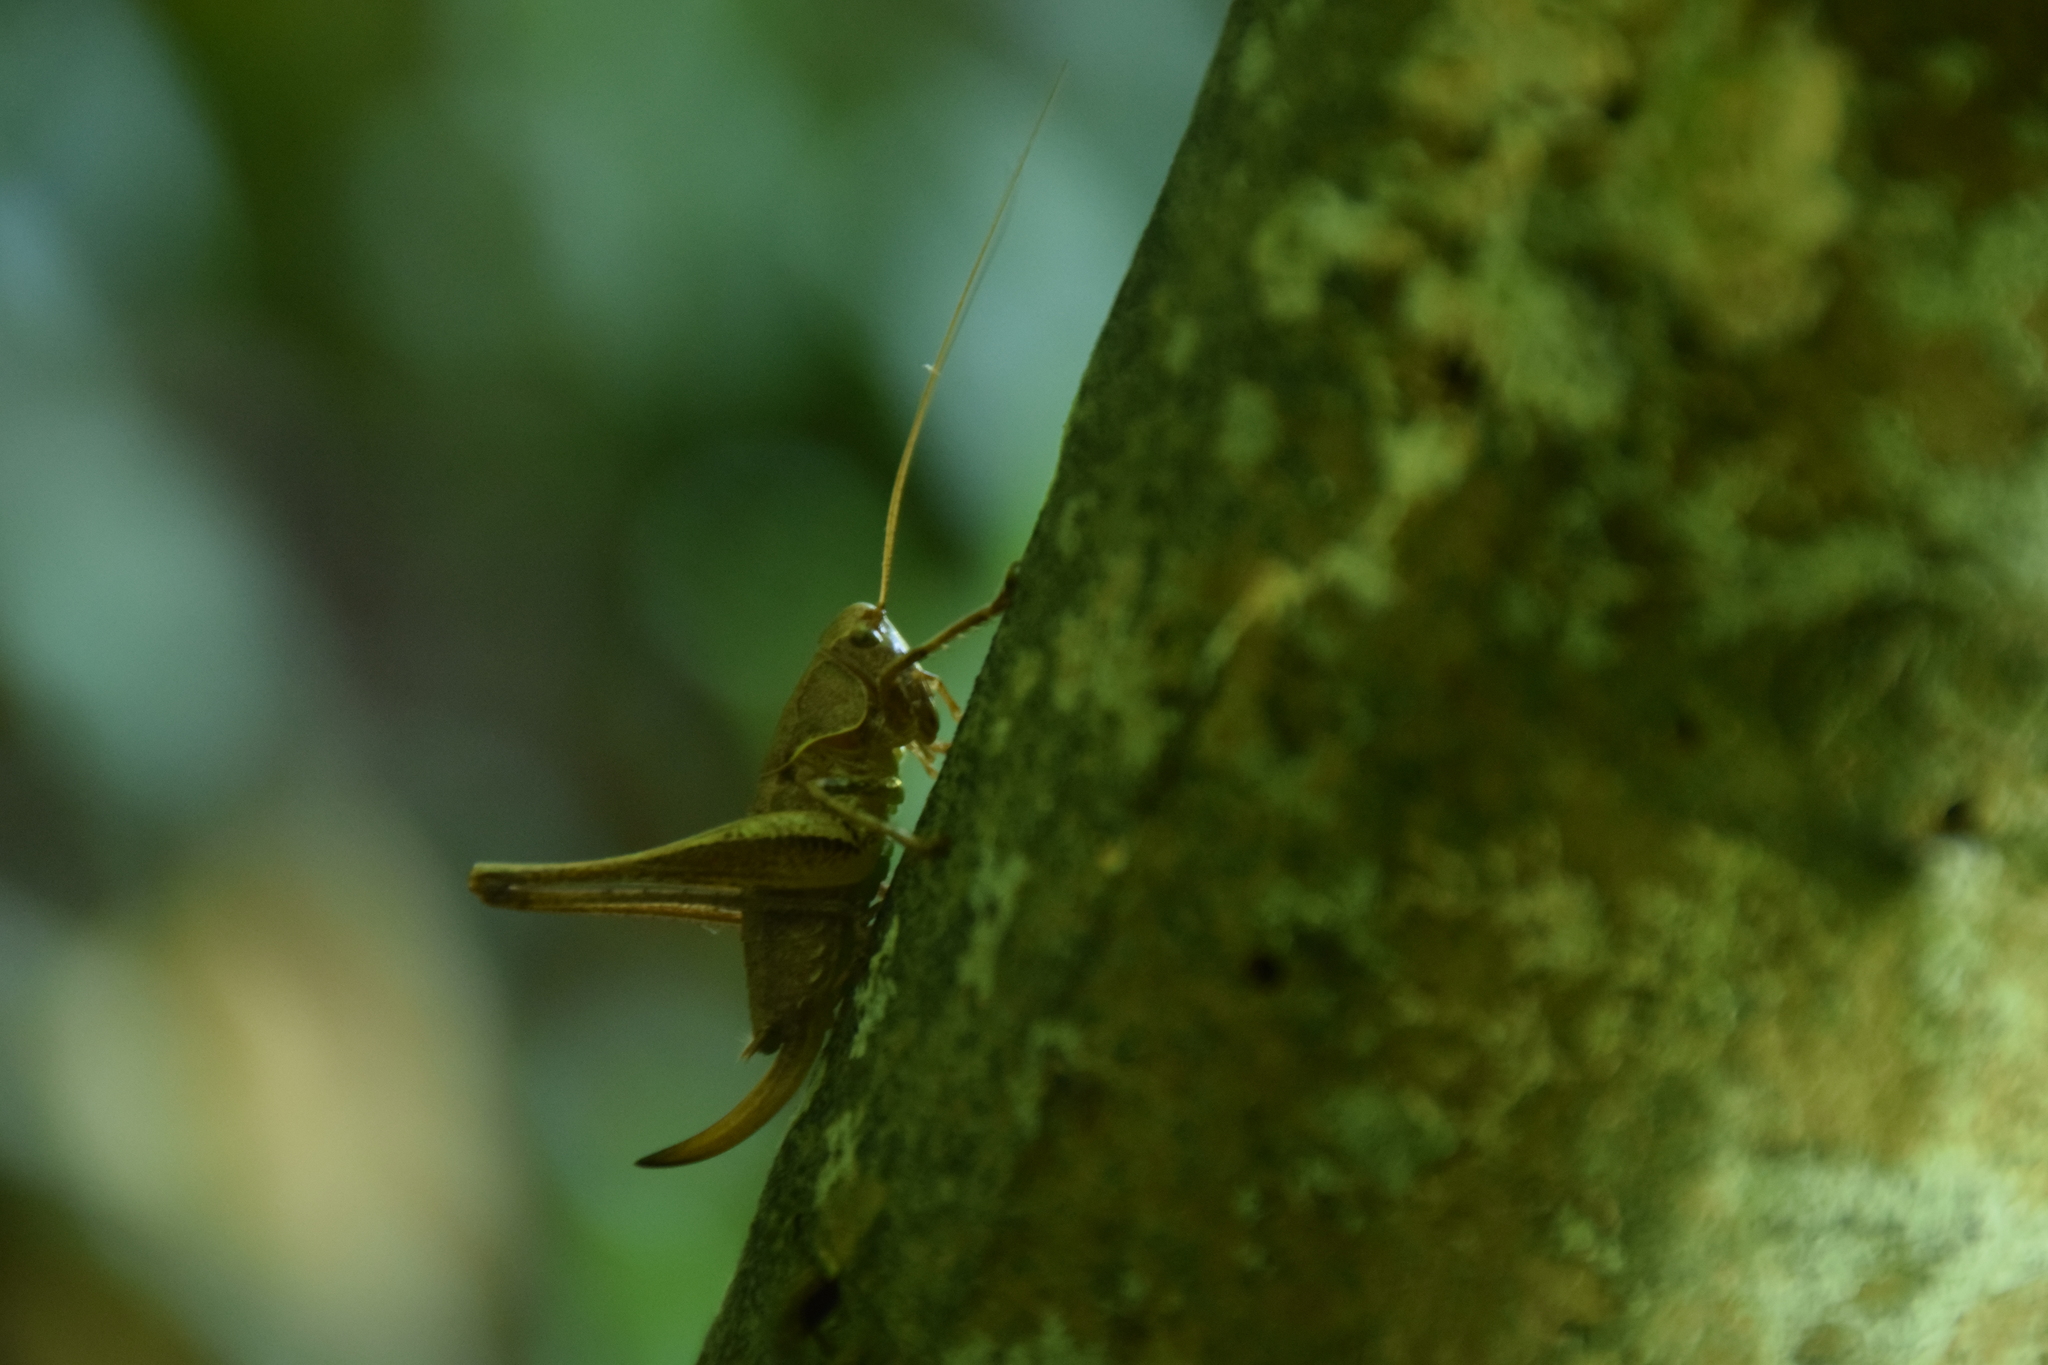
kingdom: Animalia
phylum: Arthropoda
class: Insecta
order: Orthoptera
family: Tettigoniidae
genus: Pholidoptera
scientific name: Pholidoptera griseoaptera
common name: Dark bush-cricket
